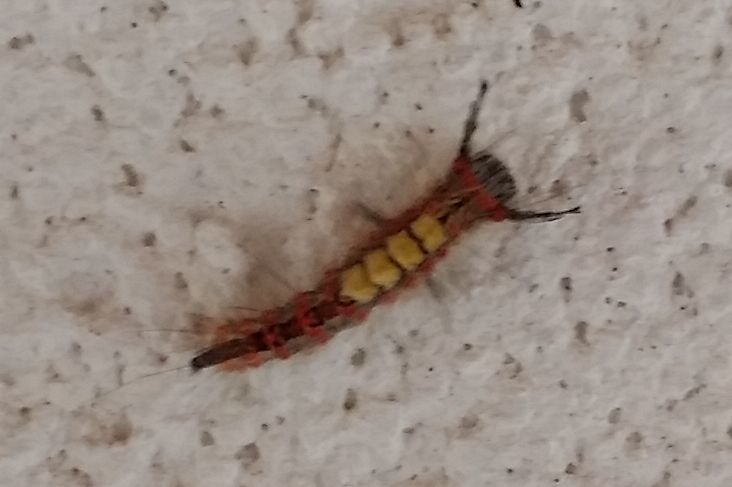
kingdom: Animalia
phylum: Arthropoda
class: Insecta
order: Lepidoptera
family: Erebidae
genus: Orgyia
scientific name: Orgyia antiqua
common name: Vapourer
